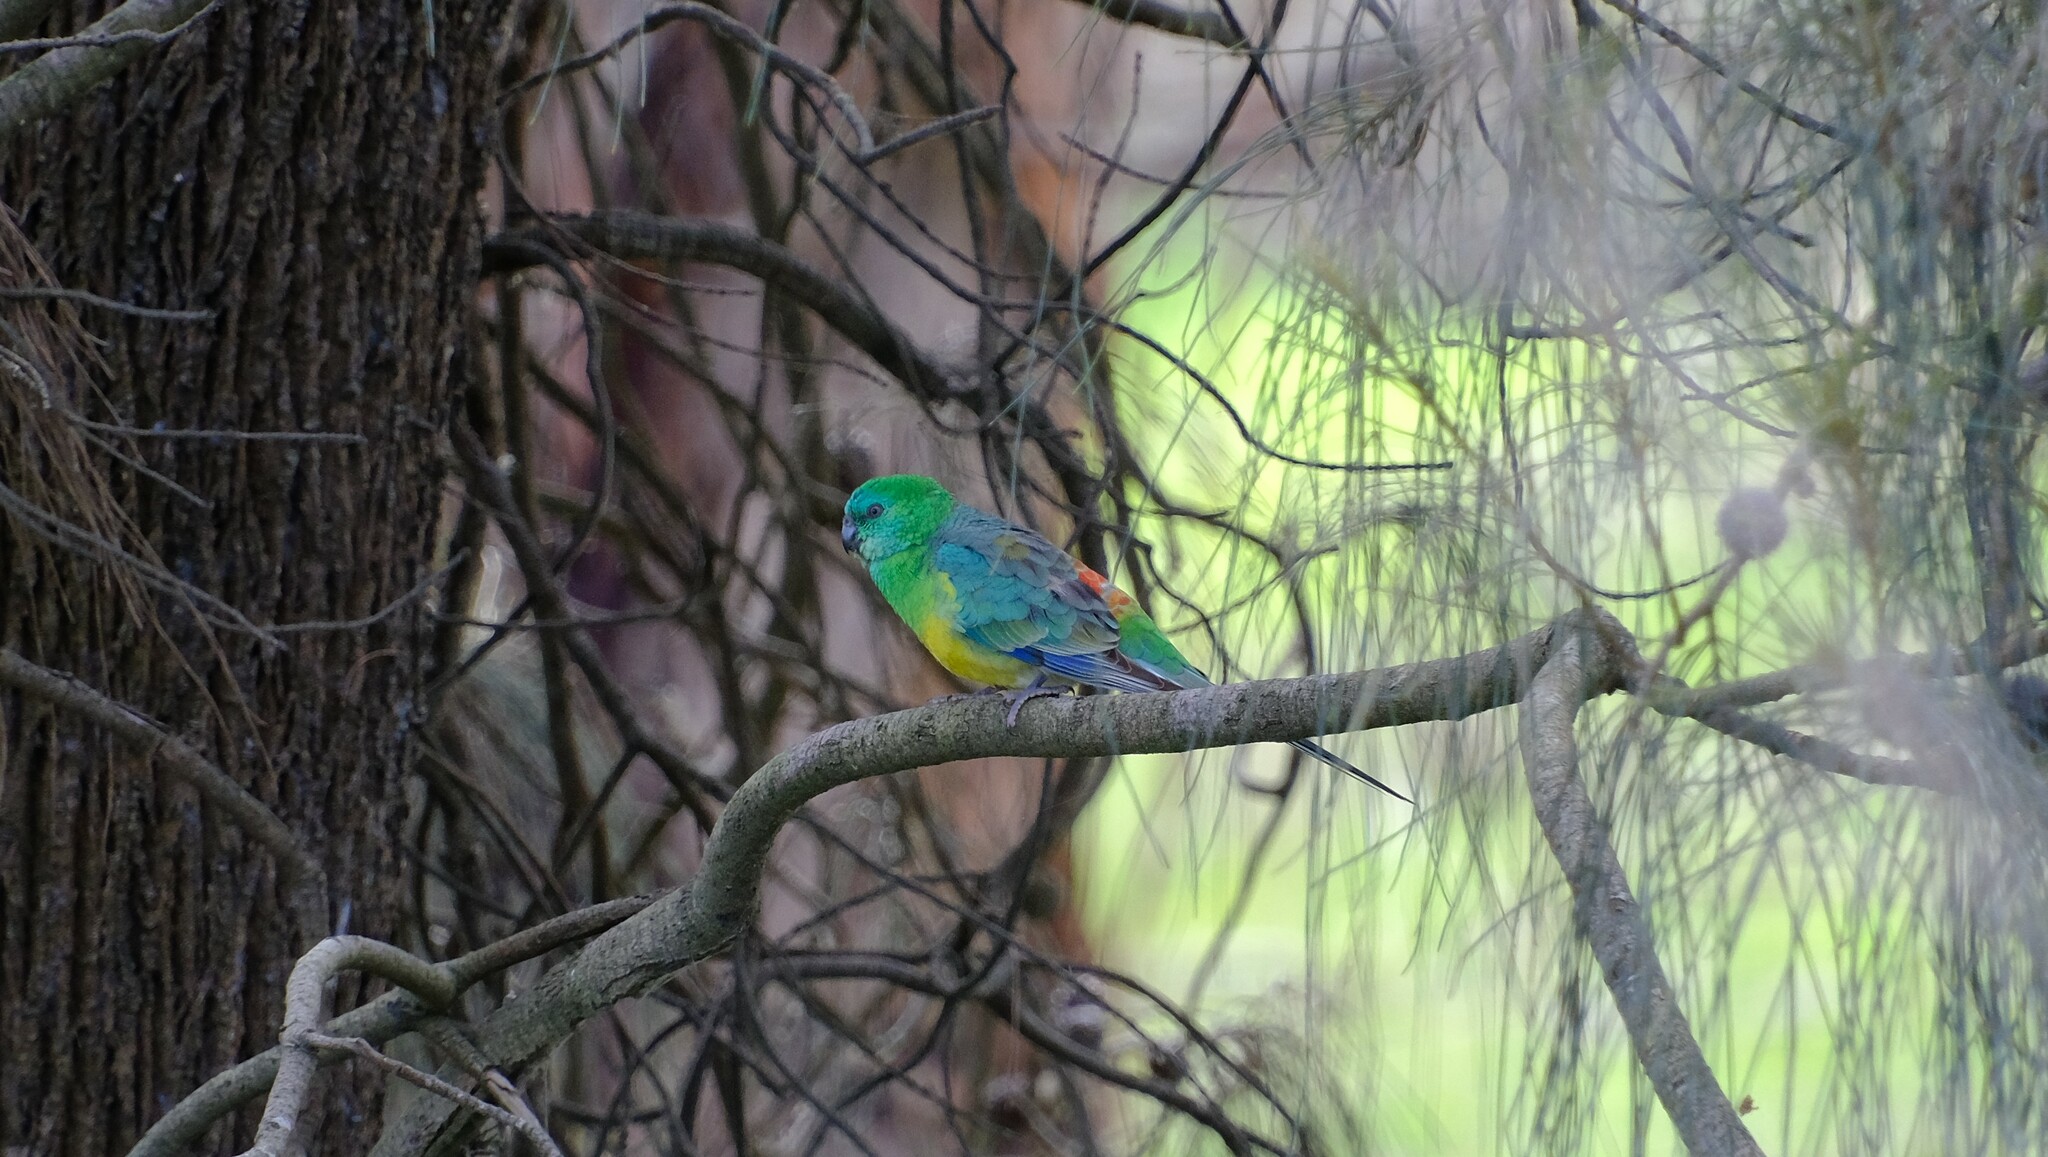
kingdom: Animalia
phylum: Chordata
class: Aves
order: Psittaciformes
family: Psittacidae
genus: Psephotus
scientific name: Psephotus haematonotus
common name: Red-rumped parrot
